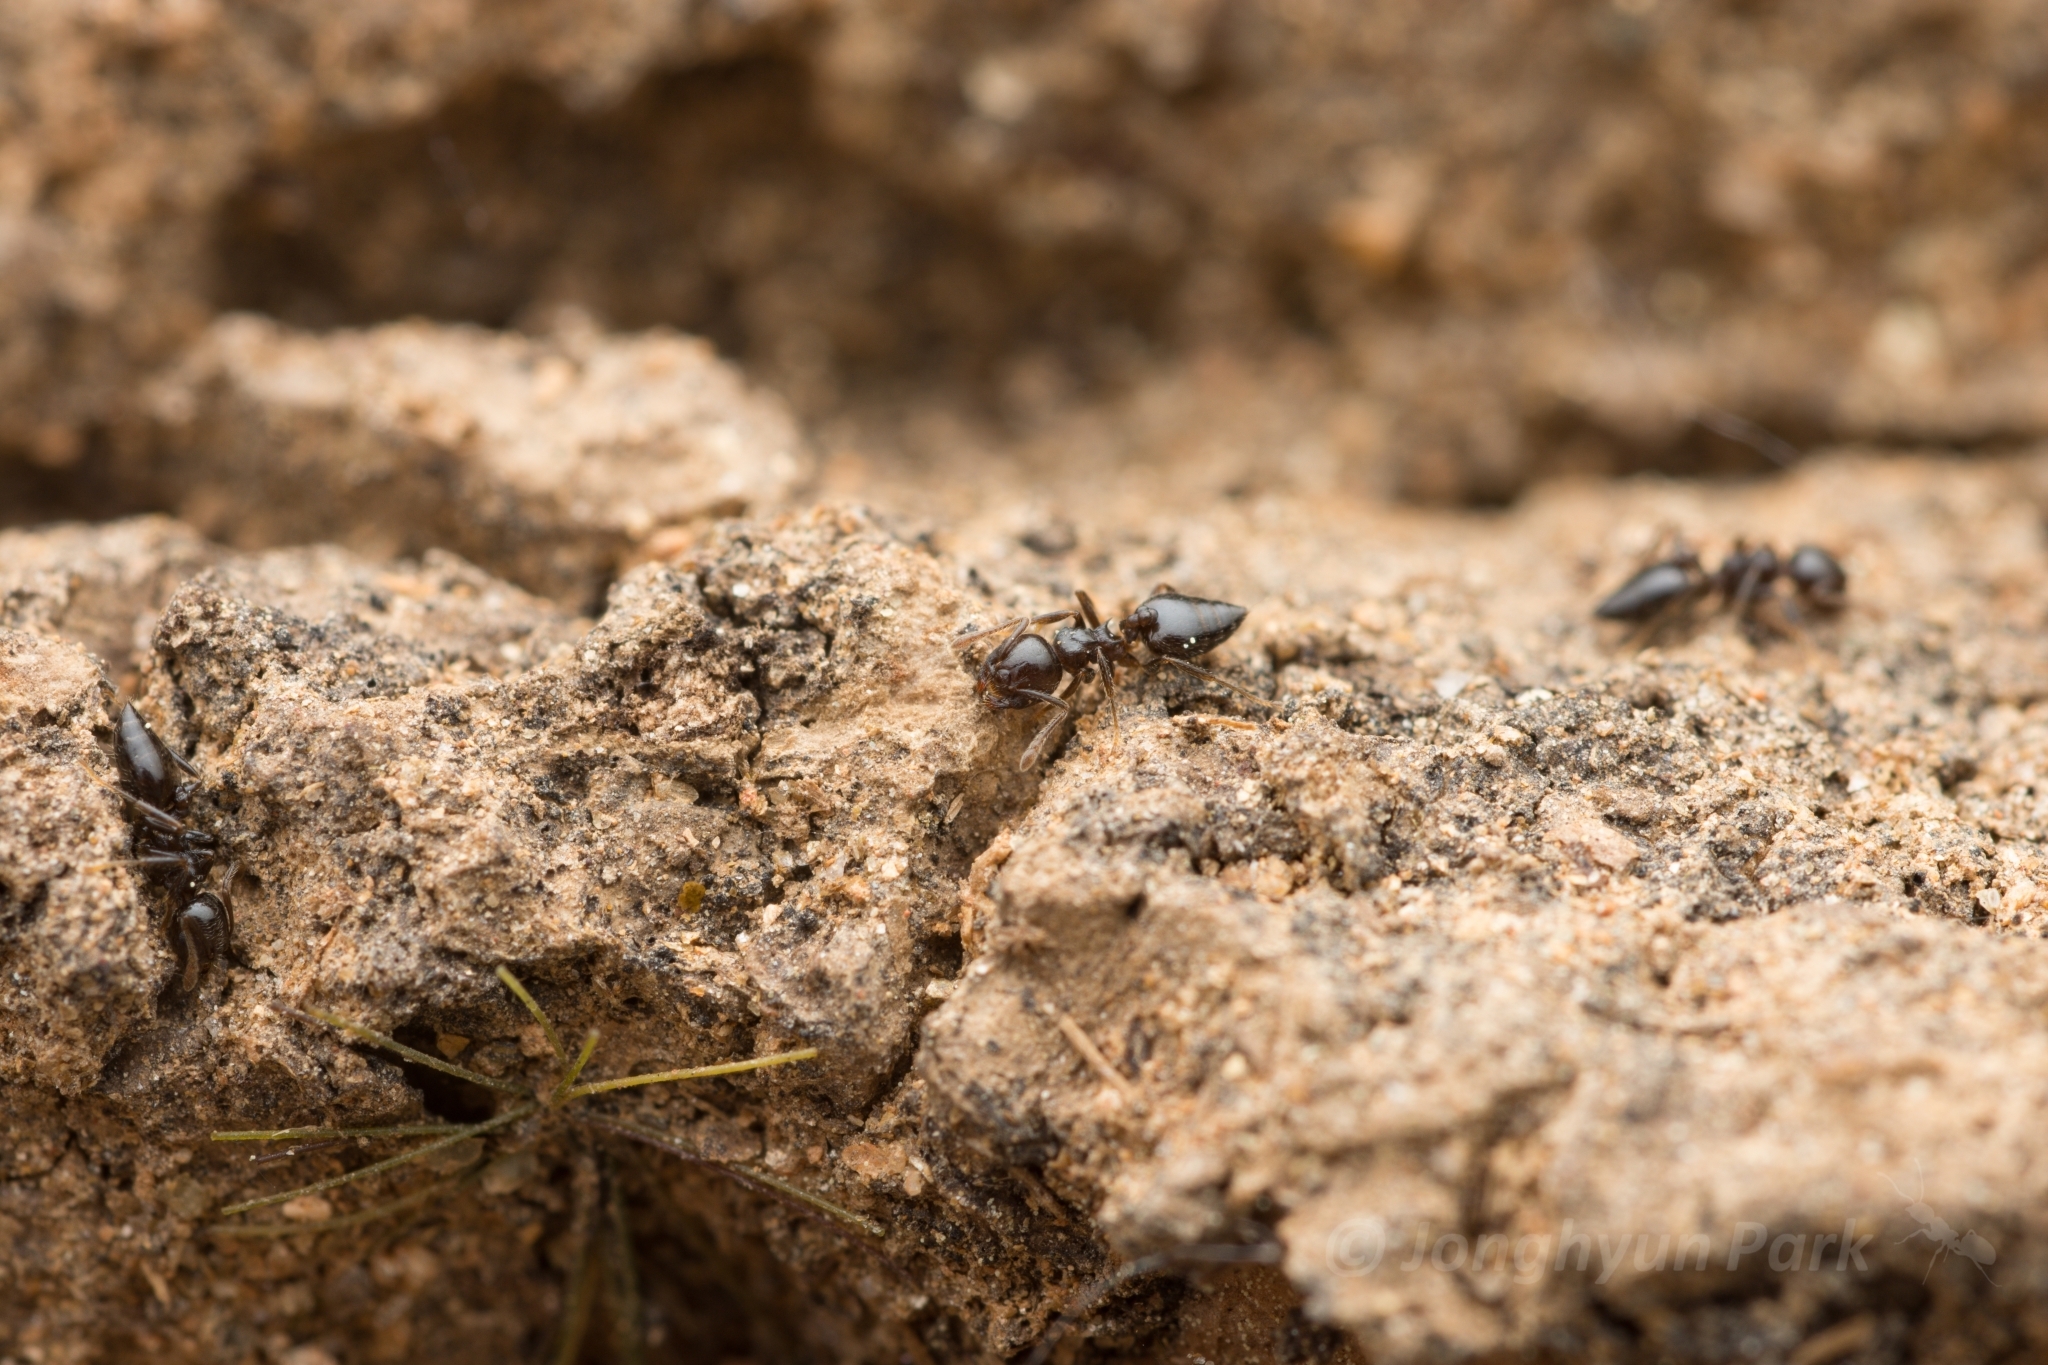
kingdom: Animalia
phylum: Arthropoda
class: Insecta
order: Hymenoptera
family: Formicidae
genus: Crematogaster
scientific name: Crematogaster teranishii
